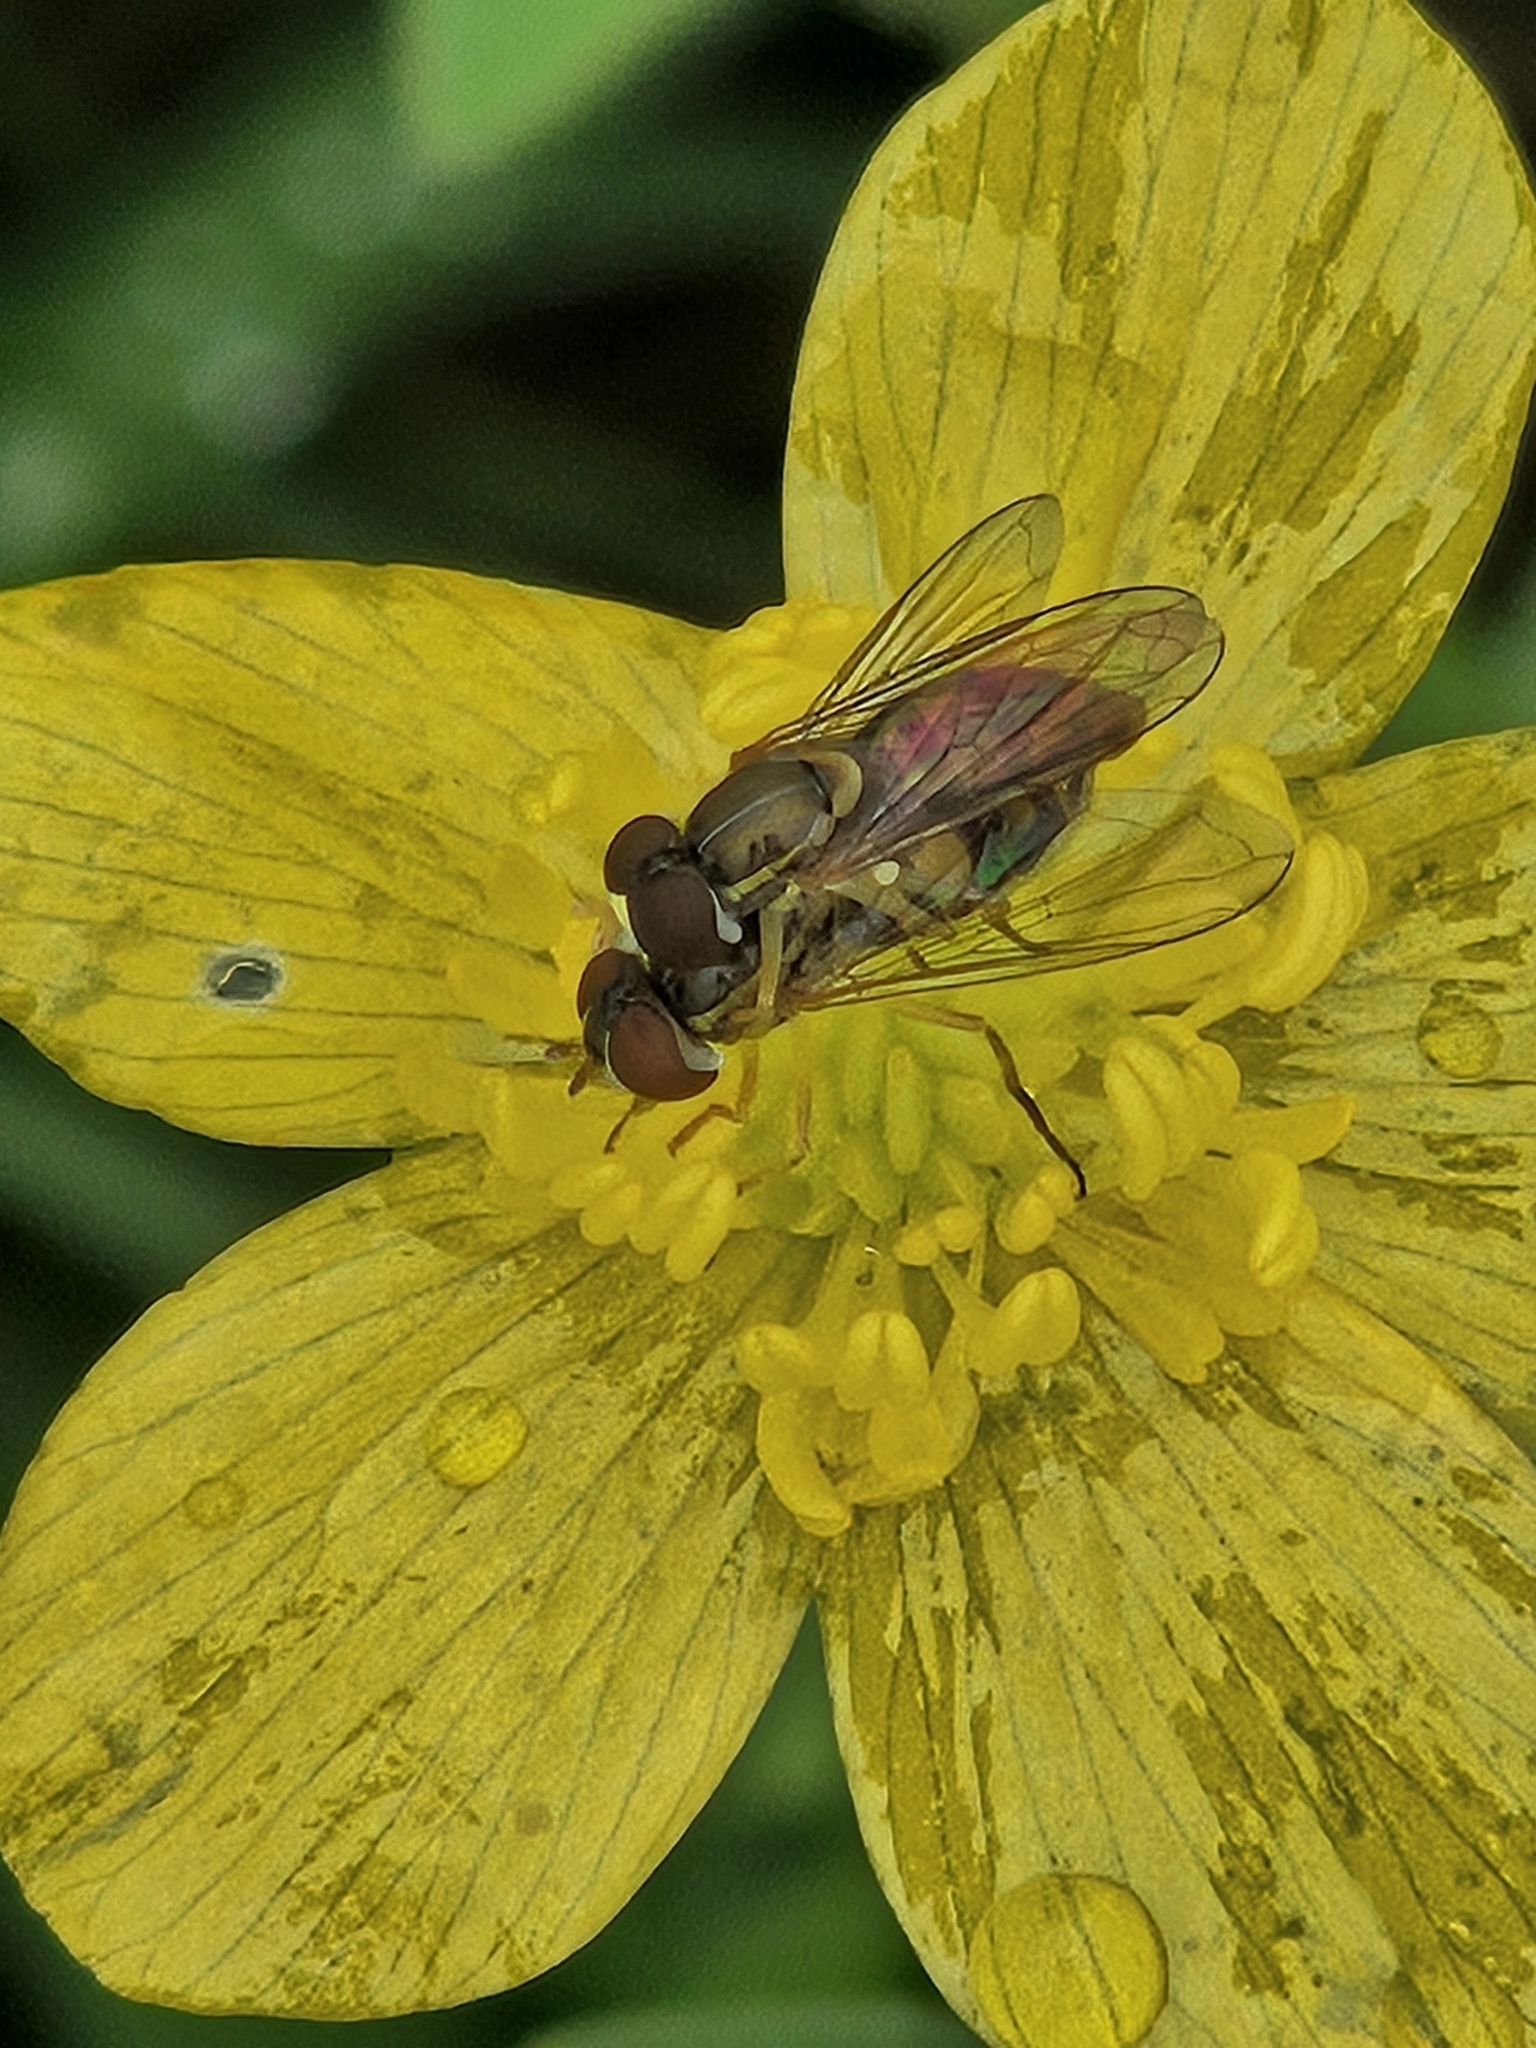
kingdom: Animalia
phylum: Arthropoda
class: Insecta
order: Diptera
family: Syrphidae
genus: Toxomerus
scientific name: Toxomerus marginatus
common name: Syrphid fly
